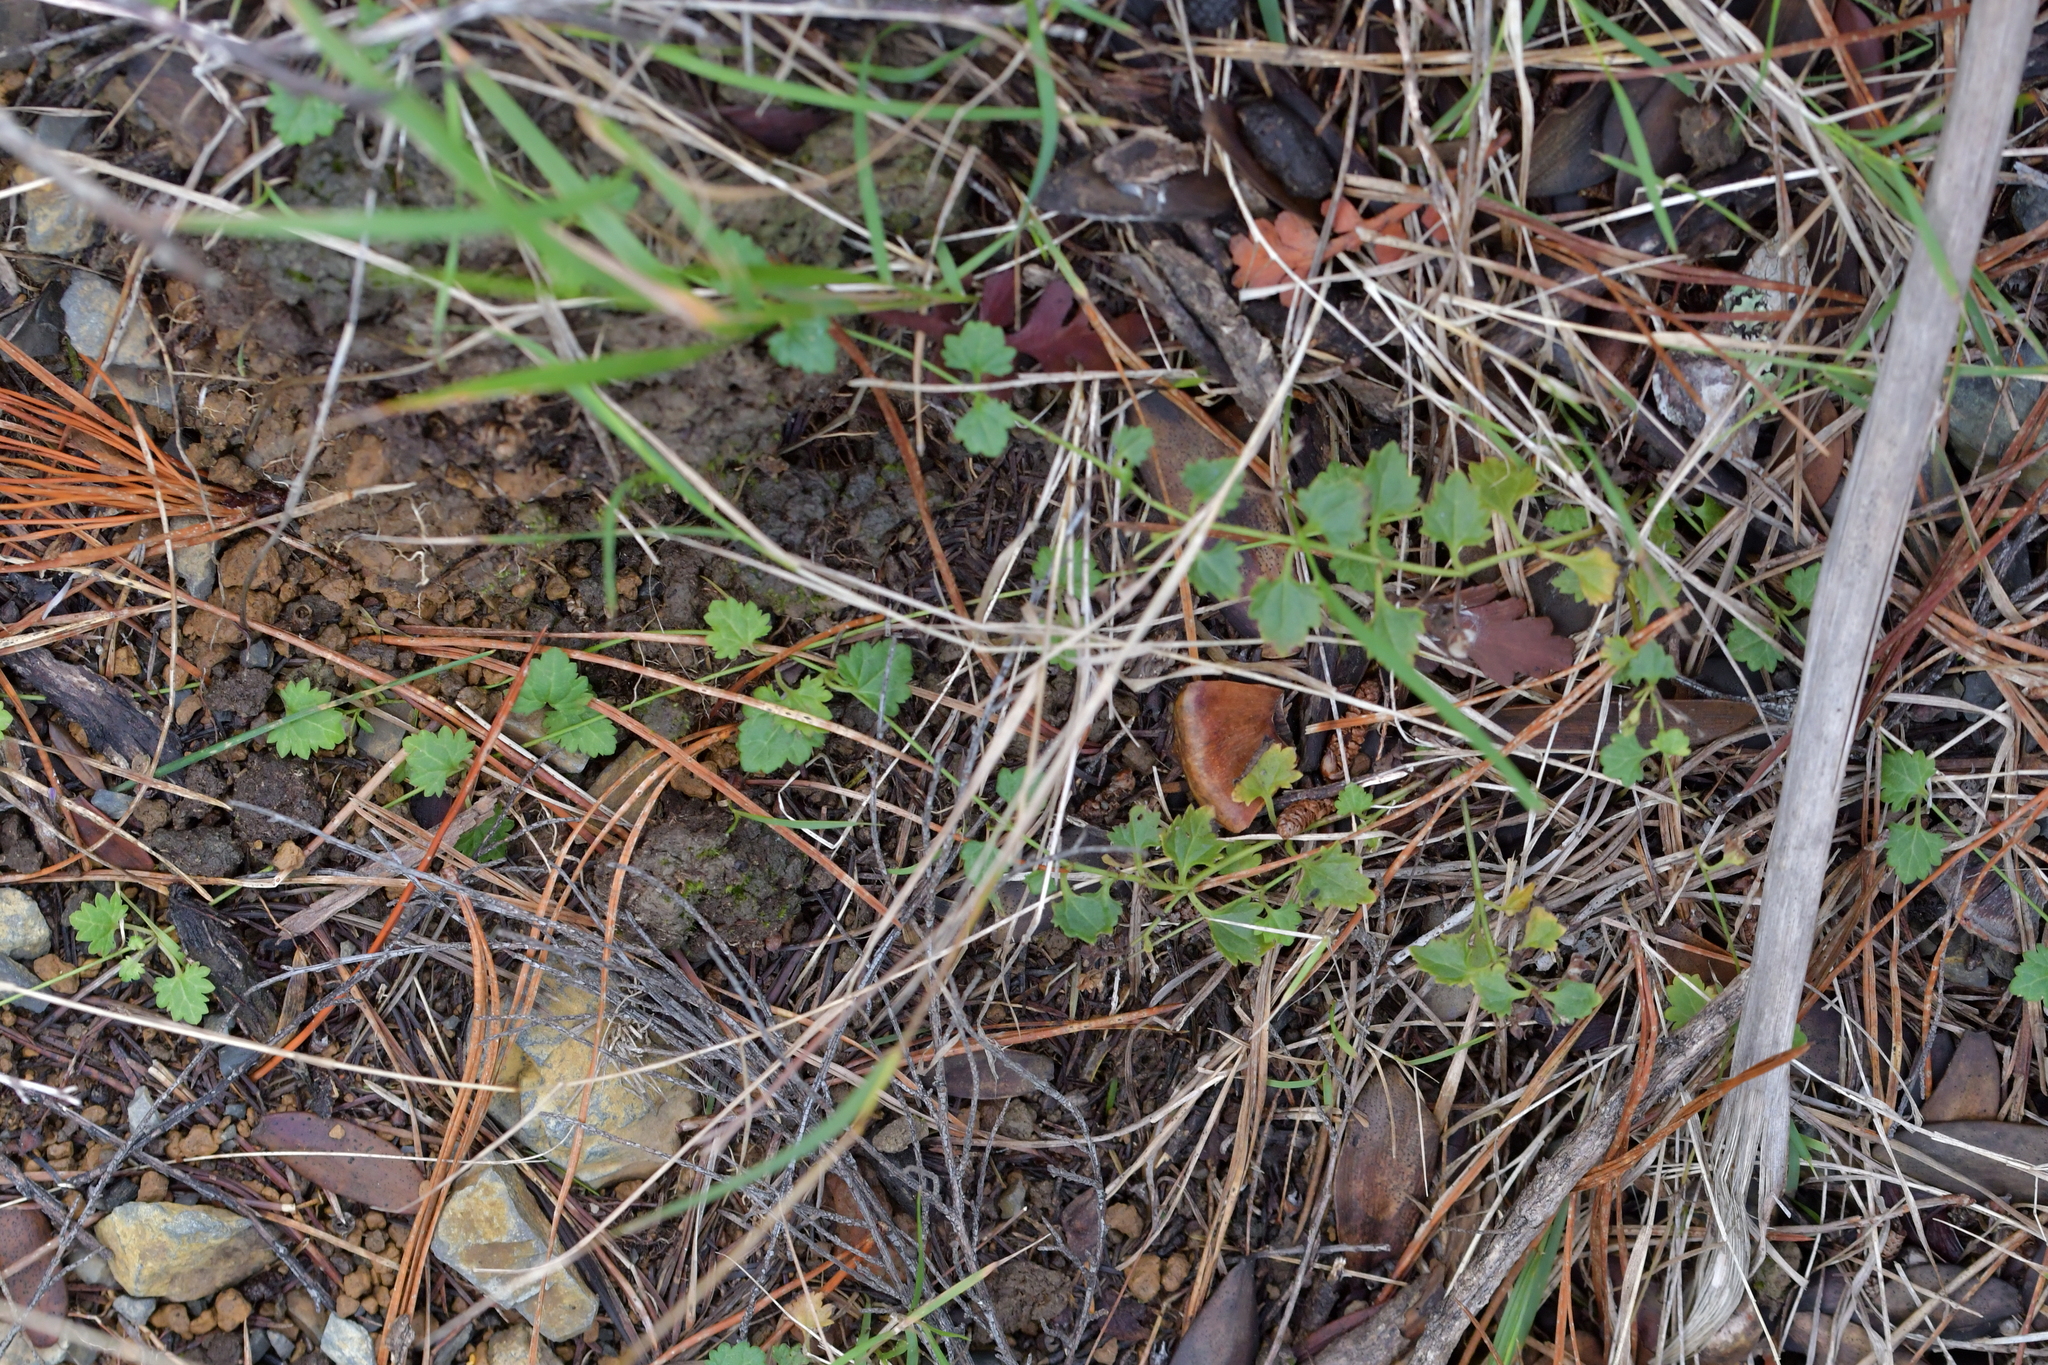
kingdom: Plantae
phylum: Tracheophyta
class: Magnoliopsida
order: Lamiales
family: Plantaginaceae
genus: Veronica
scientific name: Veronica plebeia
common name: Speedwell
